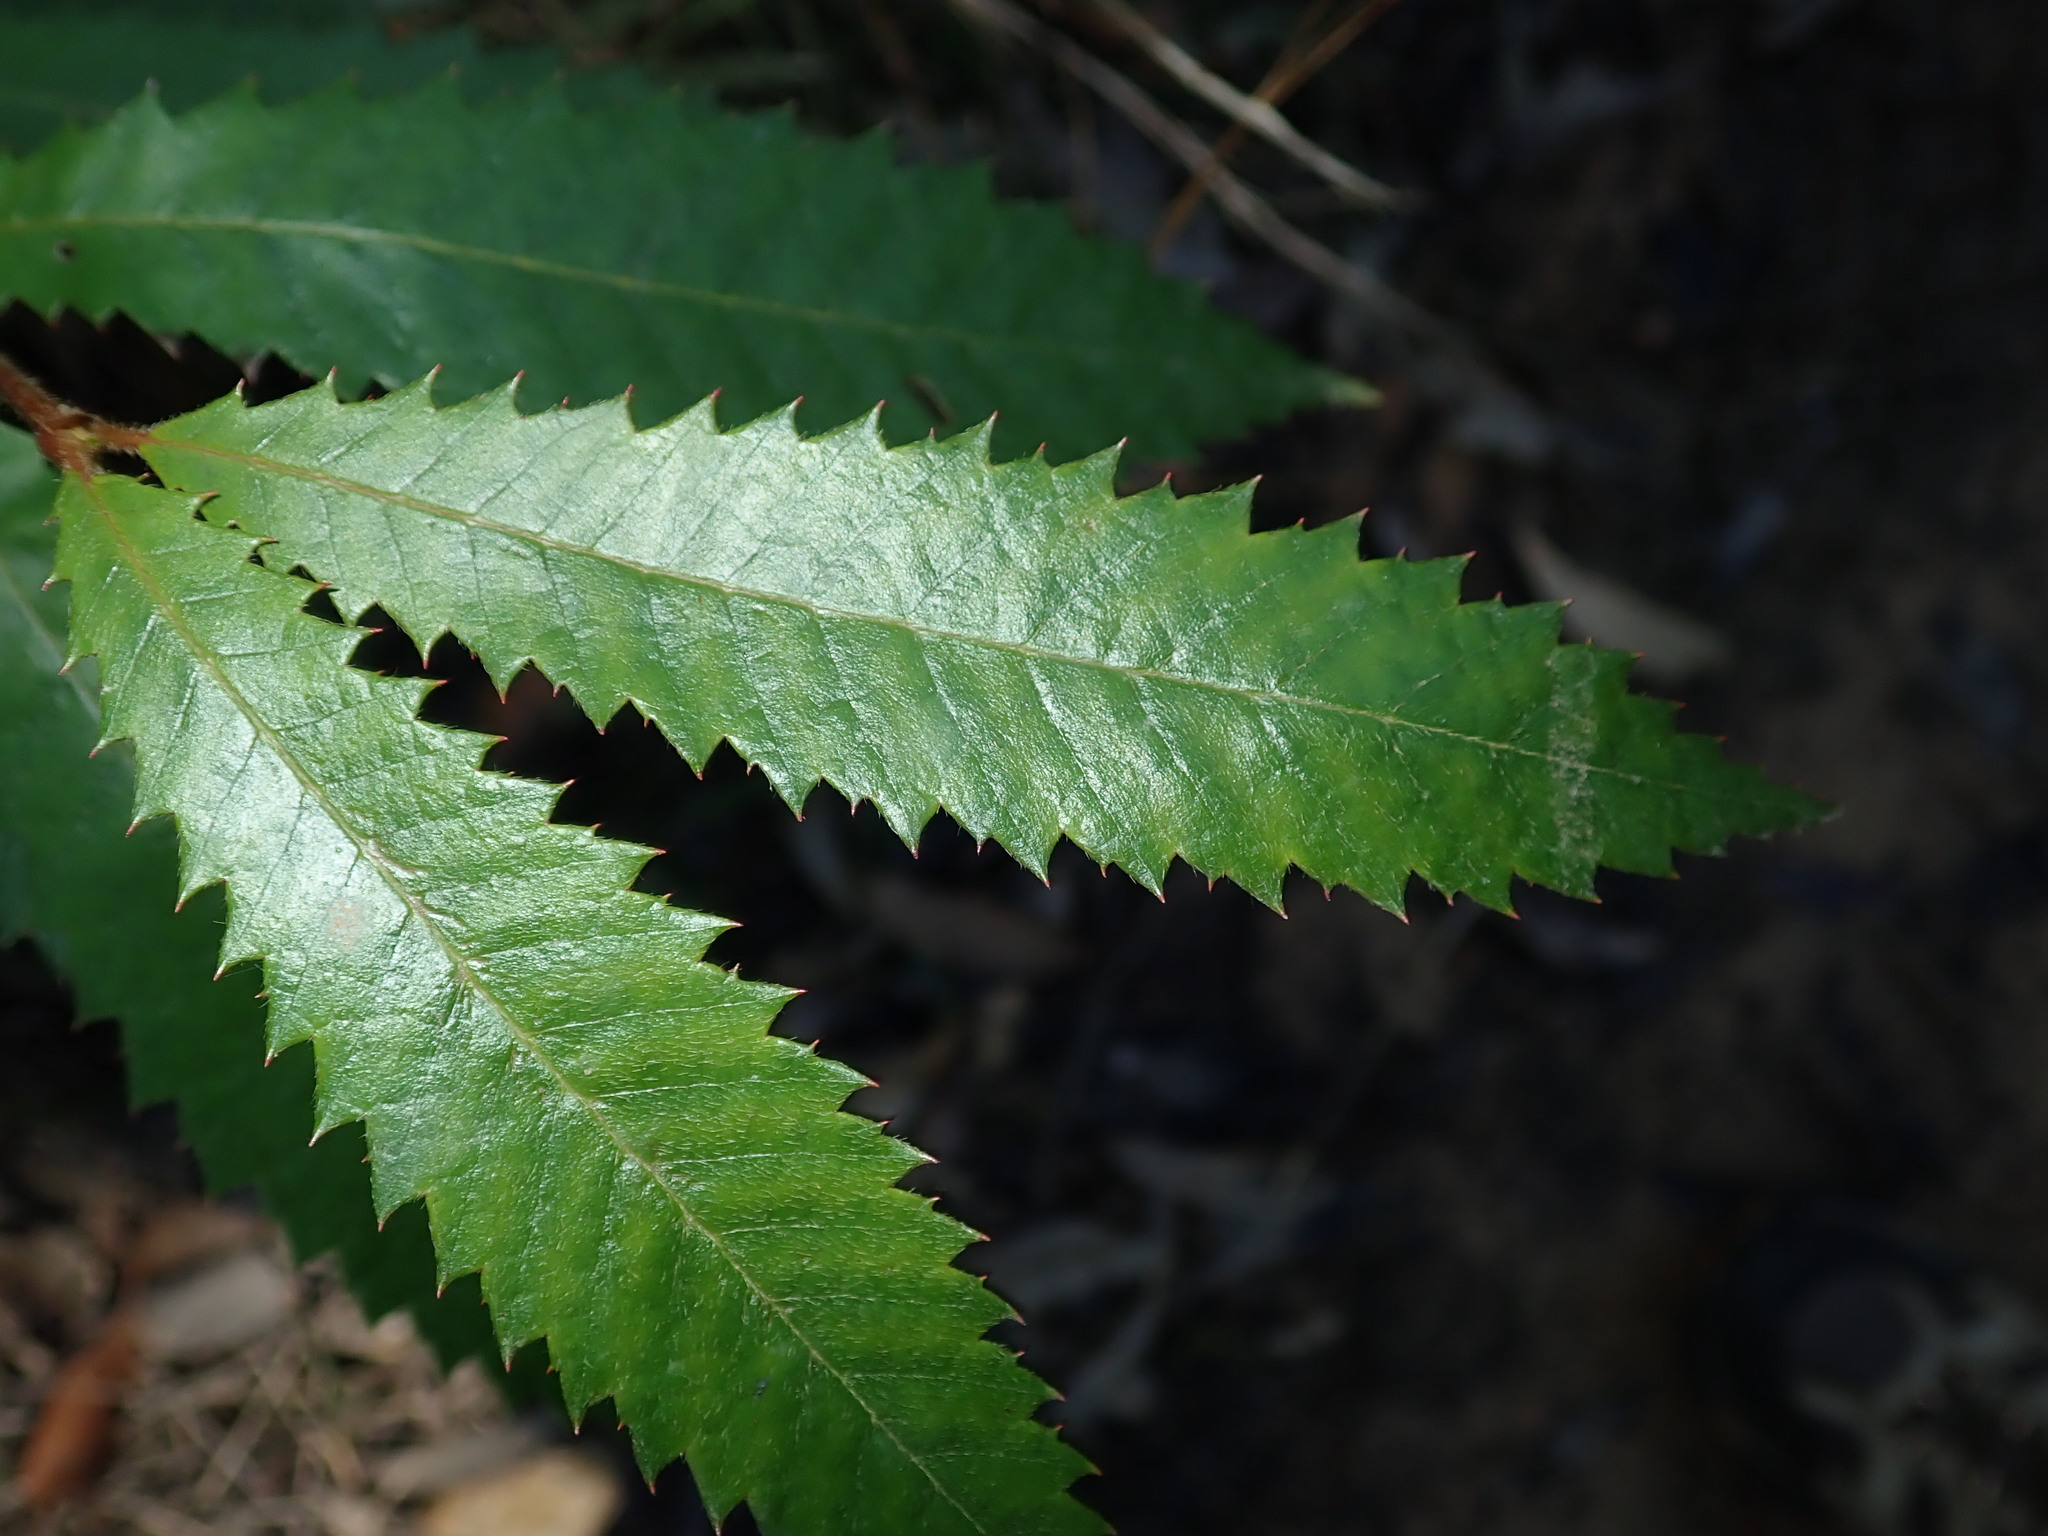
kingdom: Plantae
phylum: Tracheophyta
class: Magnoliopsida
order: Oxalidales
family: Cunoniaceae
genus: Callicoma
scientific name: Callicoma serratifolia
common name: Black wattle
